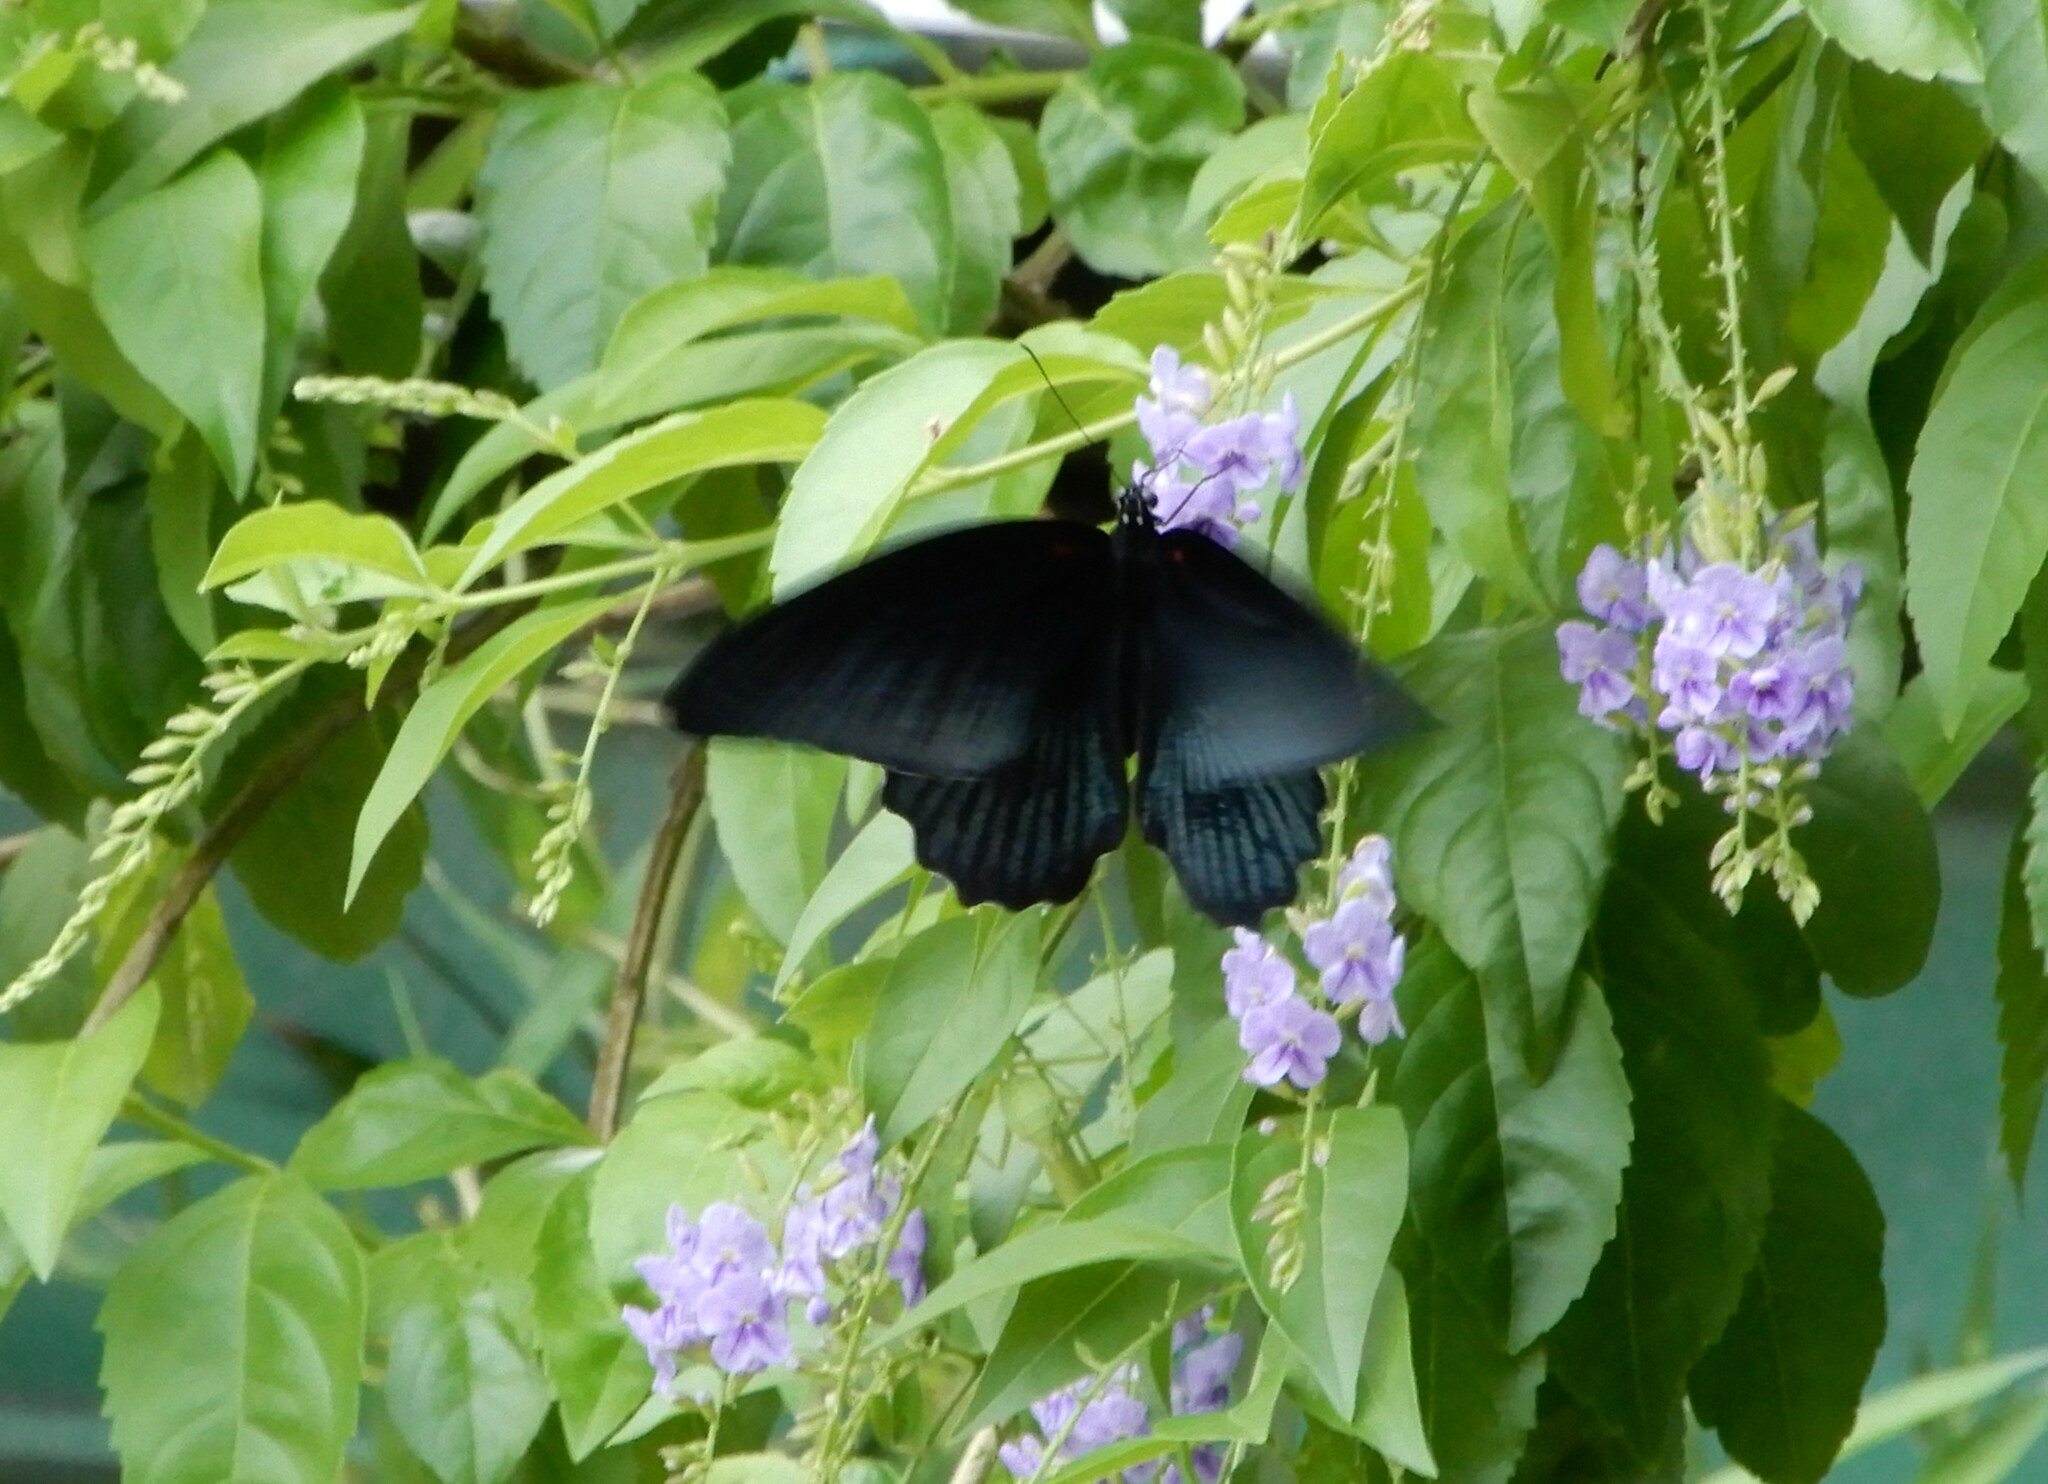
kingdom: Animalia
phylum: Arthropoda
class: Insecta
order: Lepidoptera
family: Papilionidae
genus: Papilio
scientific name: Papilio memnon
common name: Great mormon
